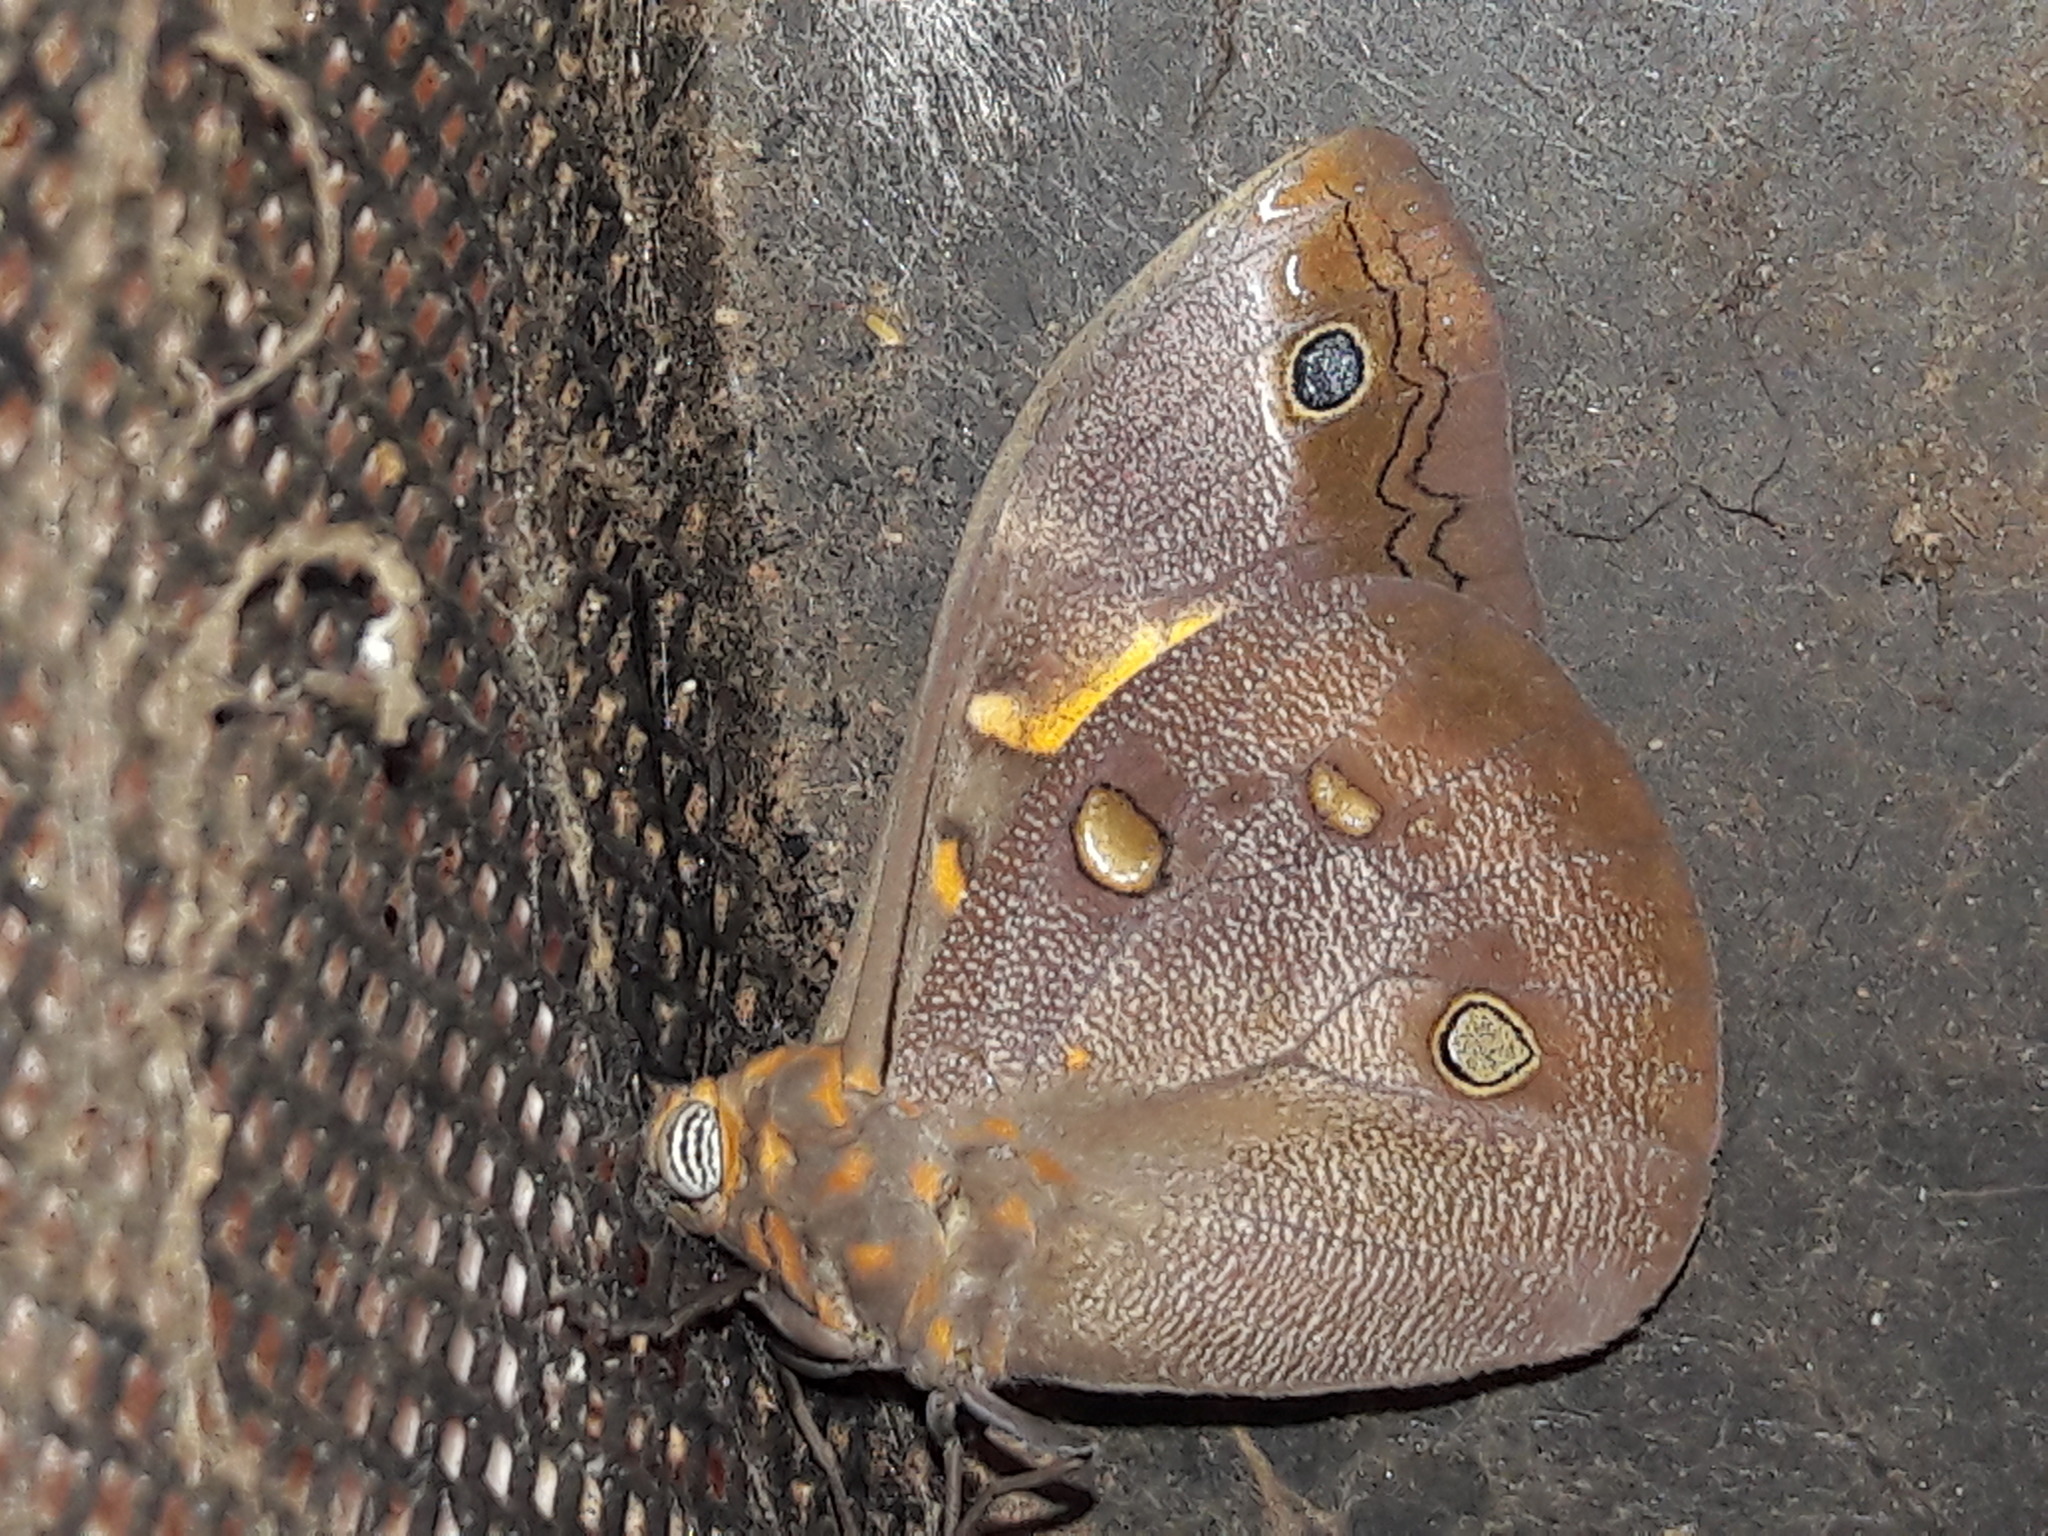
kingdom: Animalia
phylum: Arthropoda
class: Insecta
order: Lepidoptera
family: Nymphalidae
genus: Brassolis
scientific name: Brassolis sophorae
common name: Coconut caterpillar
